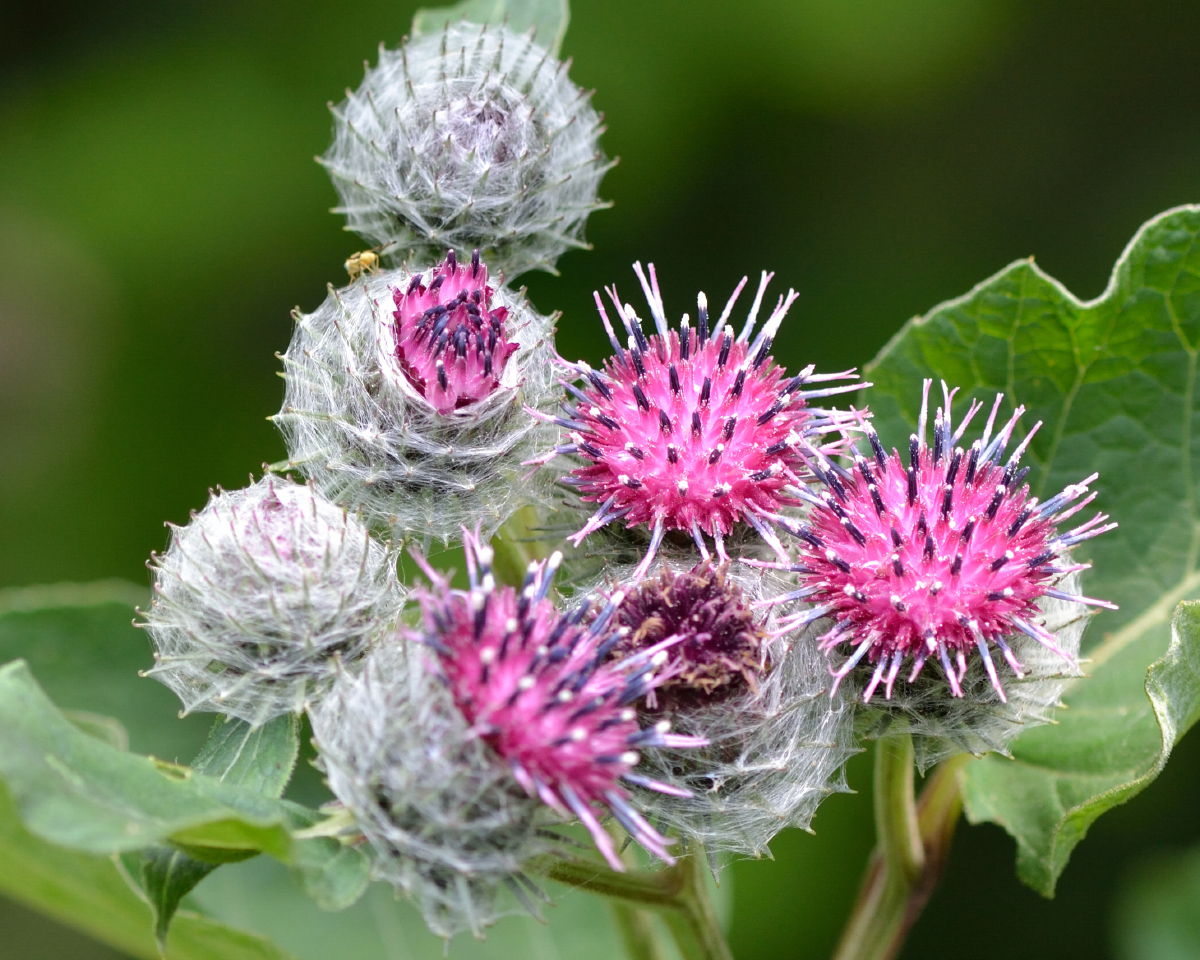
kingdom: Plantae
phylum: Tracheophyta
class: Magnoliopsida
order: Asterales
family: Asteraceae
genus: Arctium
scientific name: Arctium tomentosum
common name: Woolly burdock
